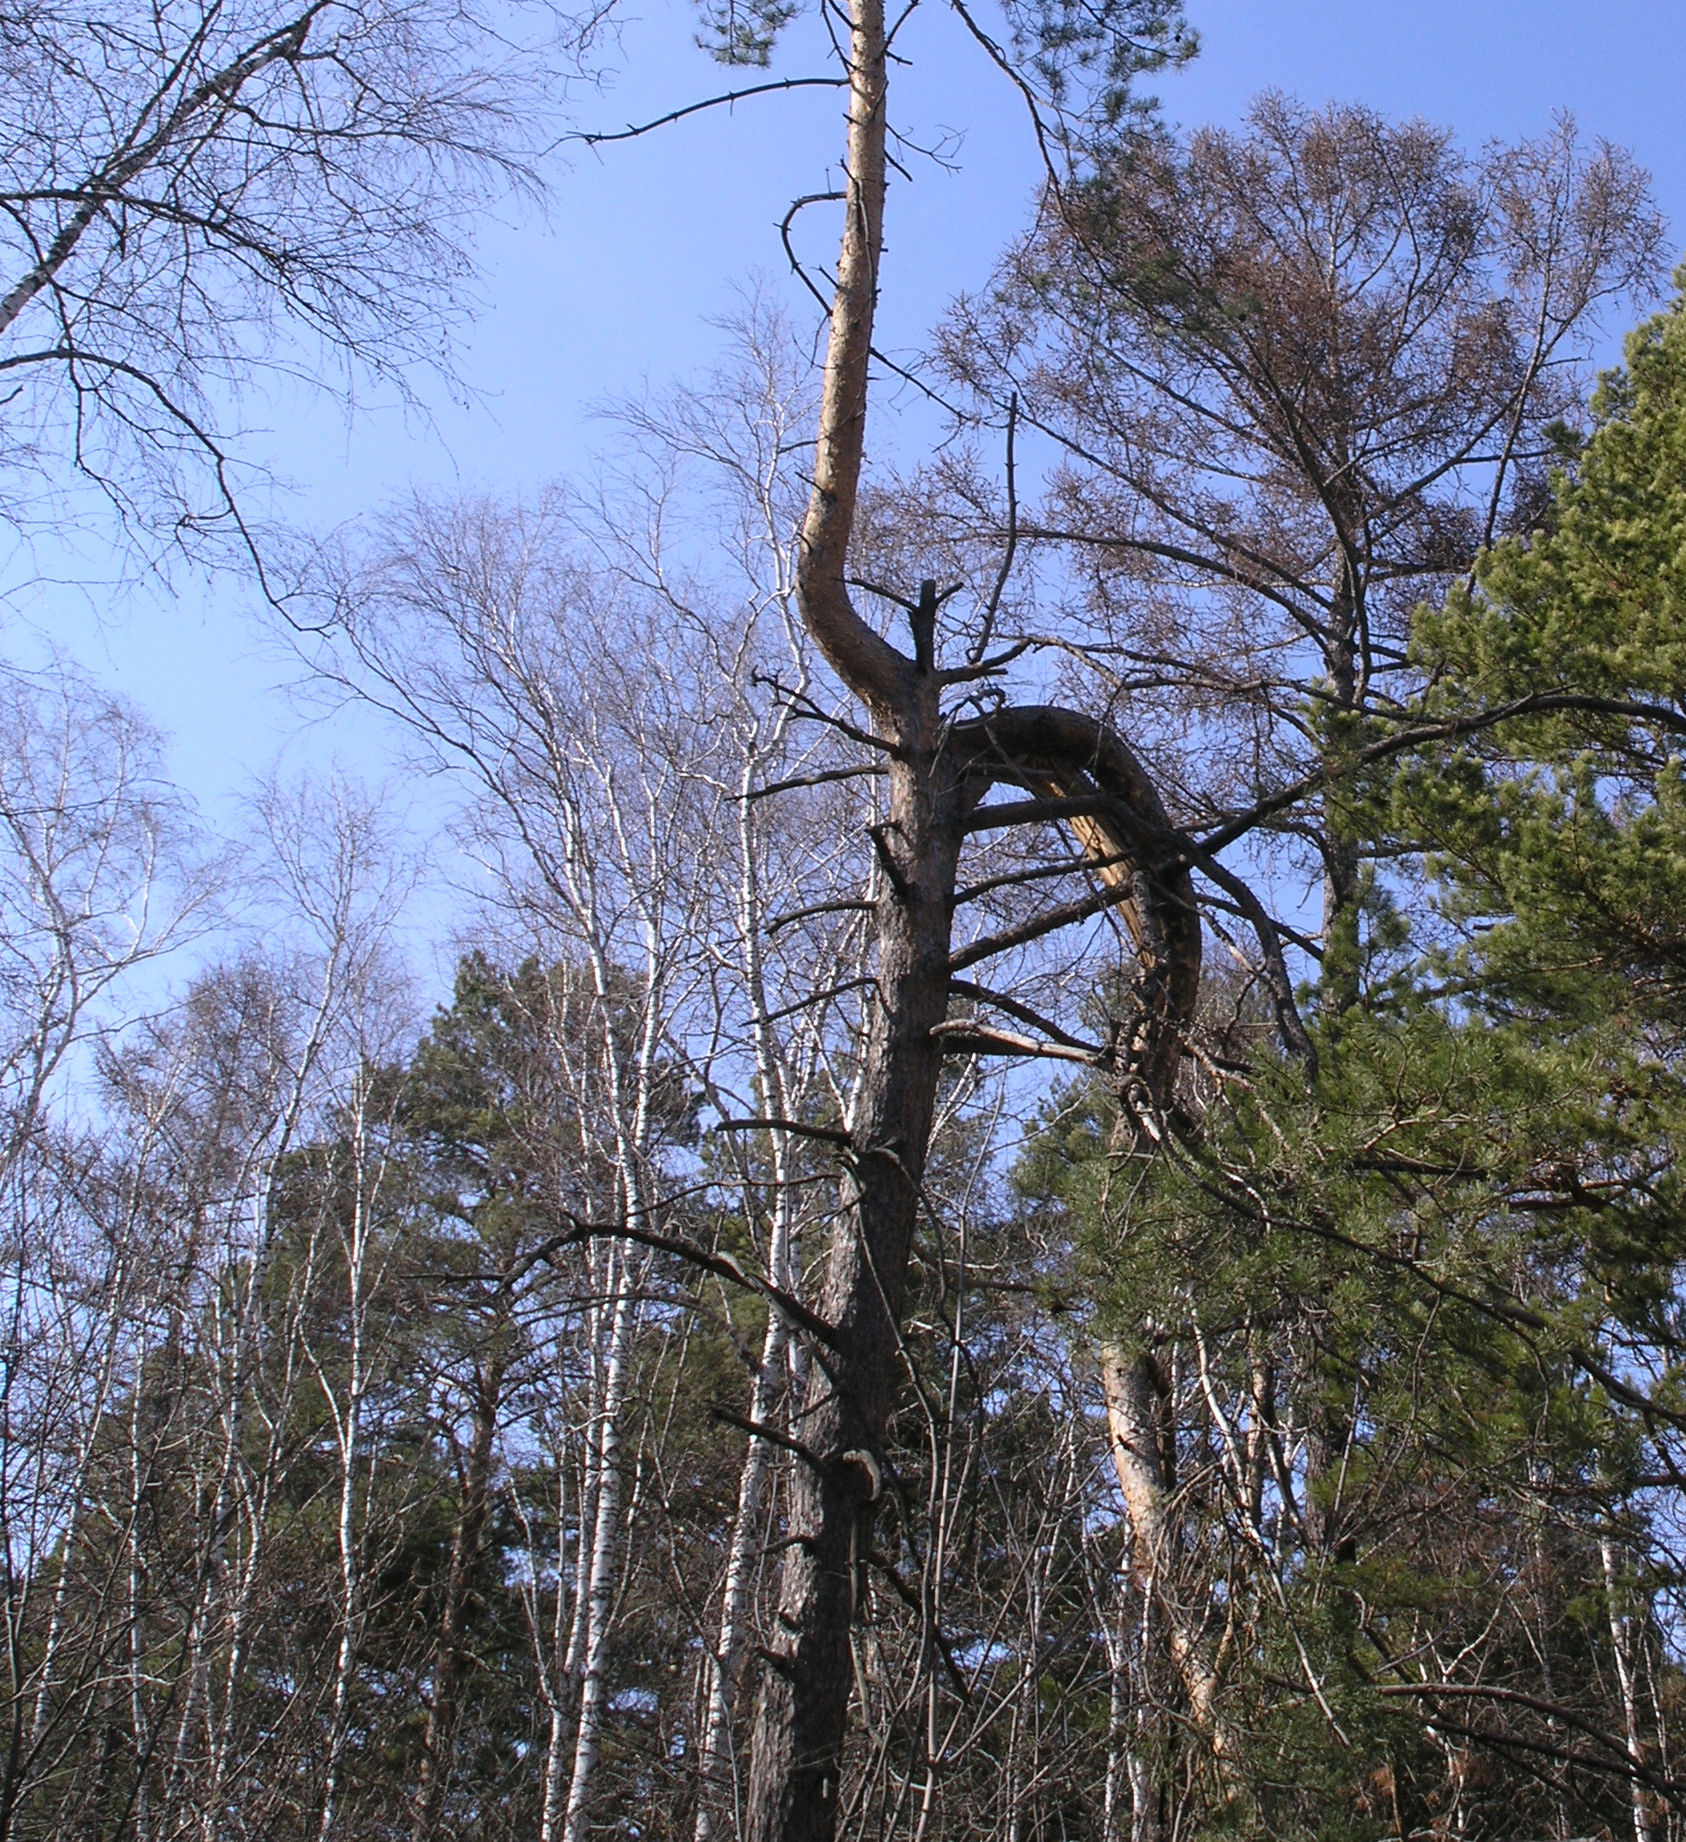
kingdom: Plantae
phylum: Tracheophyta
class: Pinopsida
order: Pinales
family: Pinaceae
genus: Larix
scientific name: Larix sibirica
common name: Siberian larch
